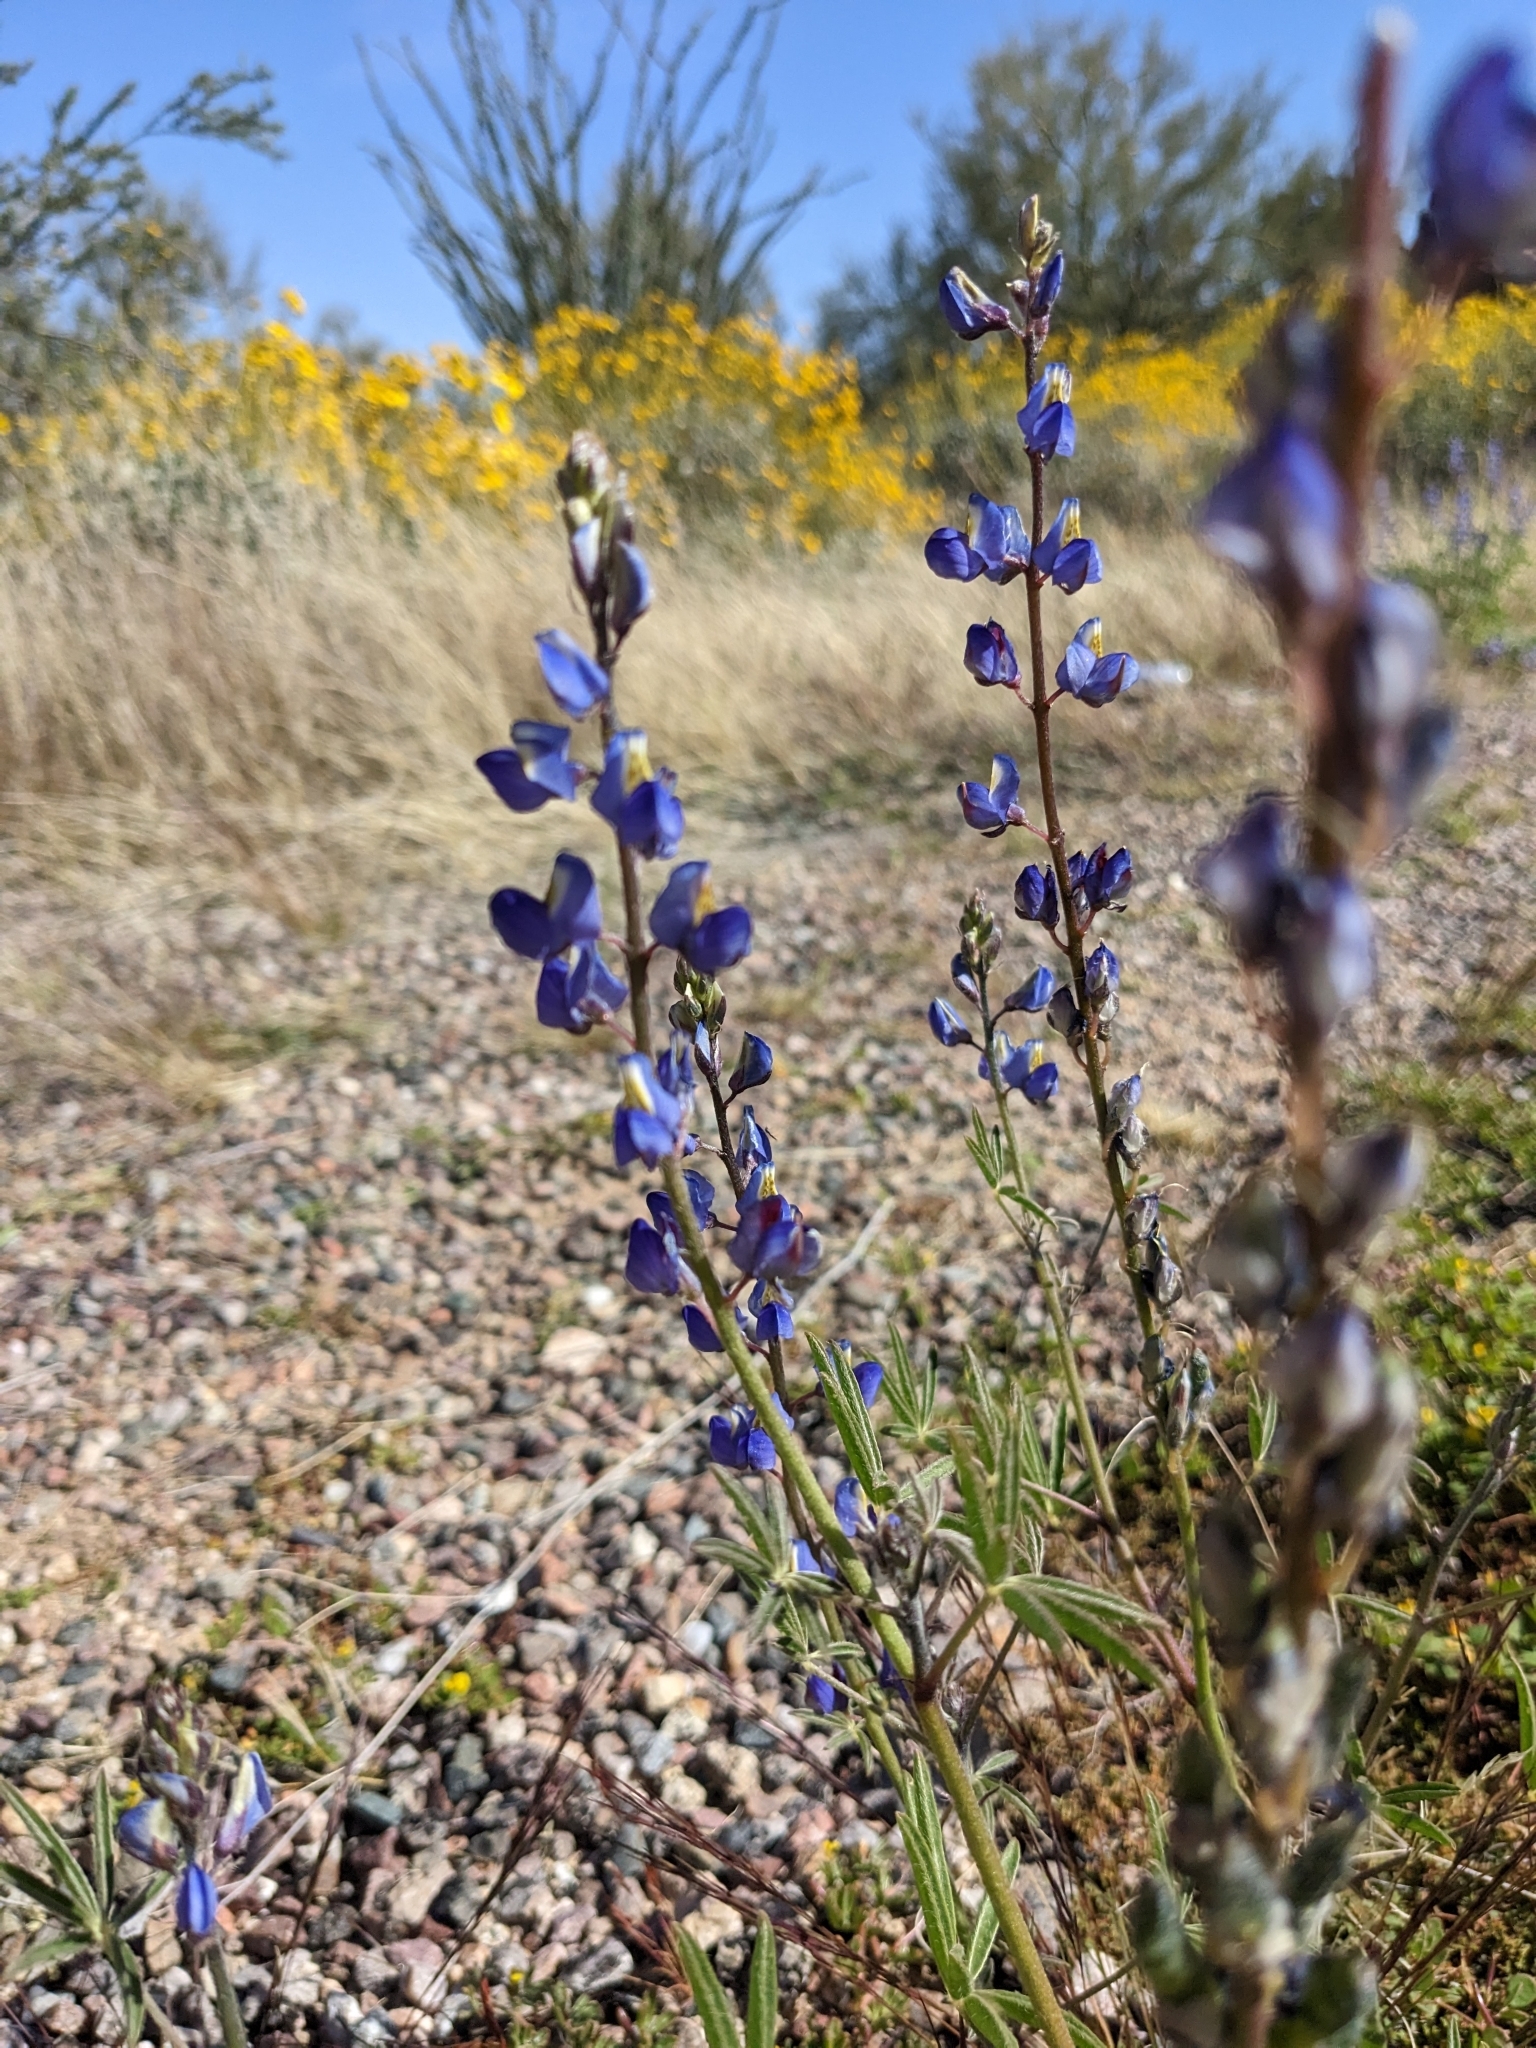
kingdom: Plantae
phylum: Tracheophyta
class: Magnoliopsida
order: Fabales
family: Fabaceae
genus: Lupinus
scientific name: Lupinus sparsiflorus
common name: Coulter's lupine
